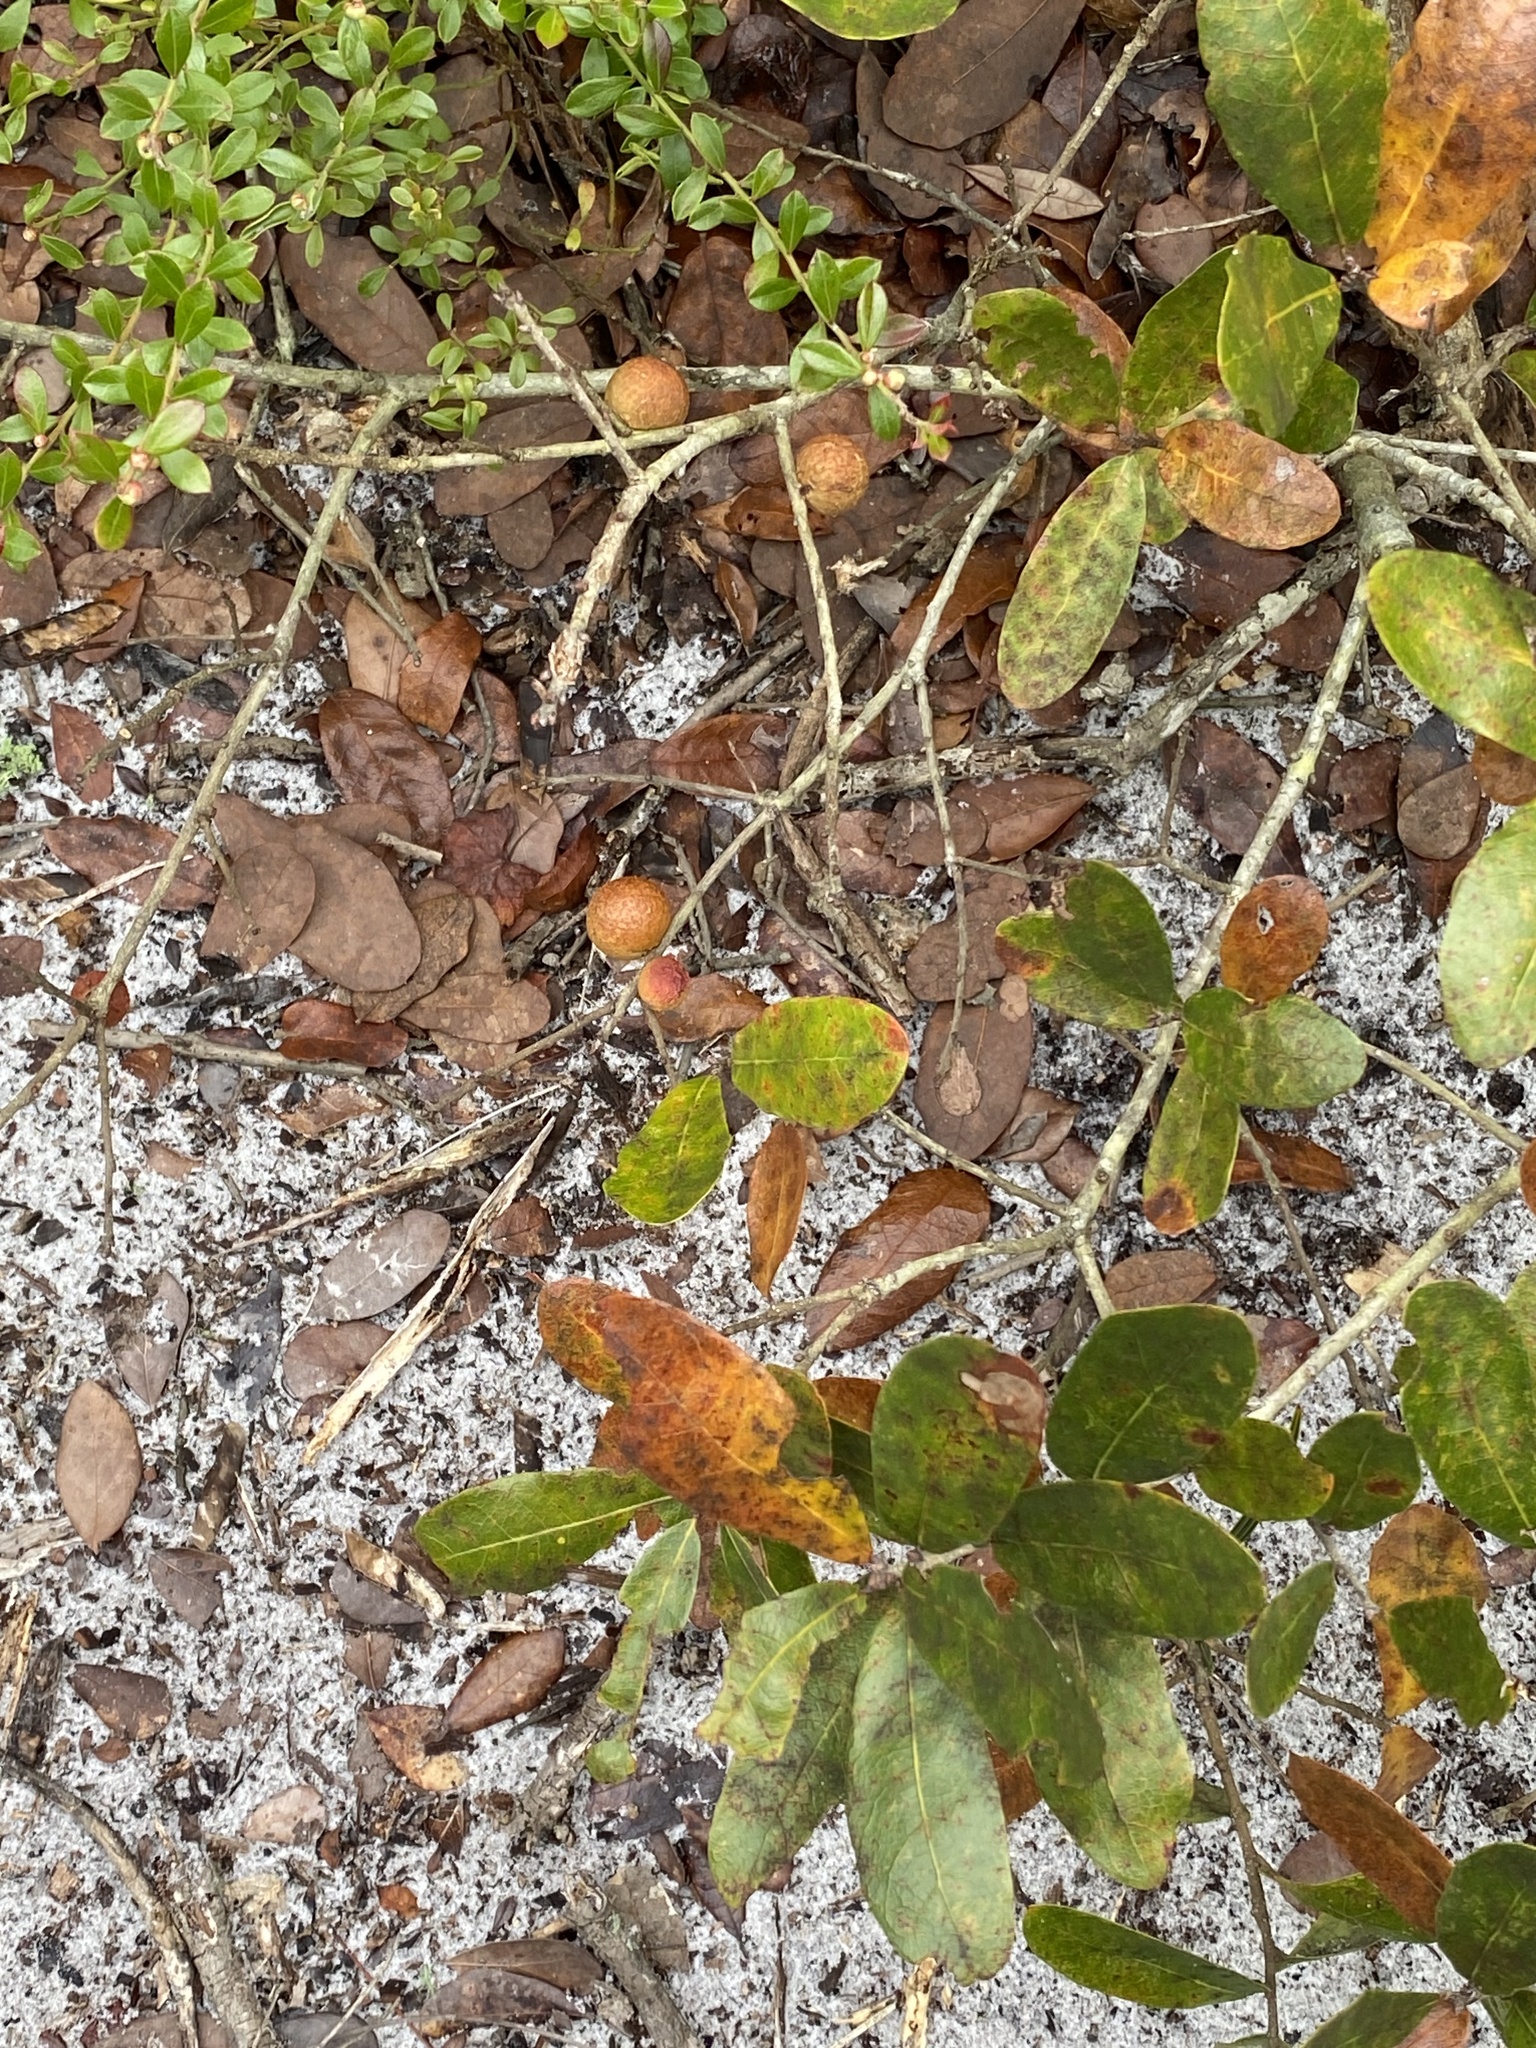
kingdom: Animalia
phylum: Arthropoda
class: Insecta
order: Hymenoptera
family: Cynipidae
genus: Disholcaspis
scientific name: Disholcaspis
